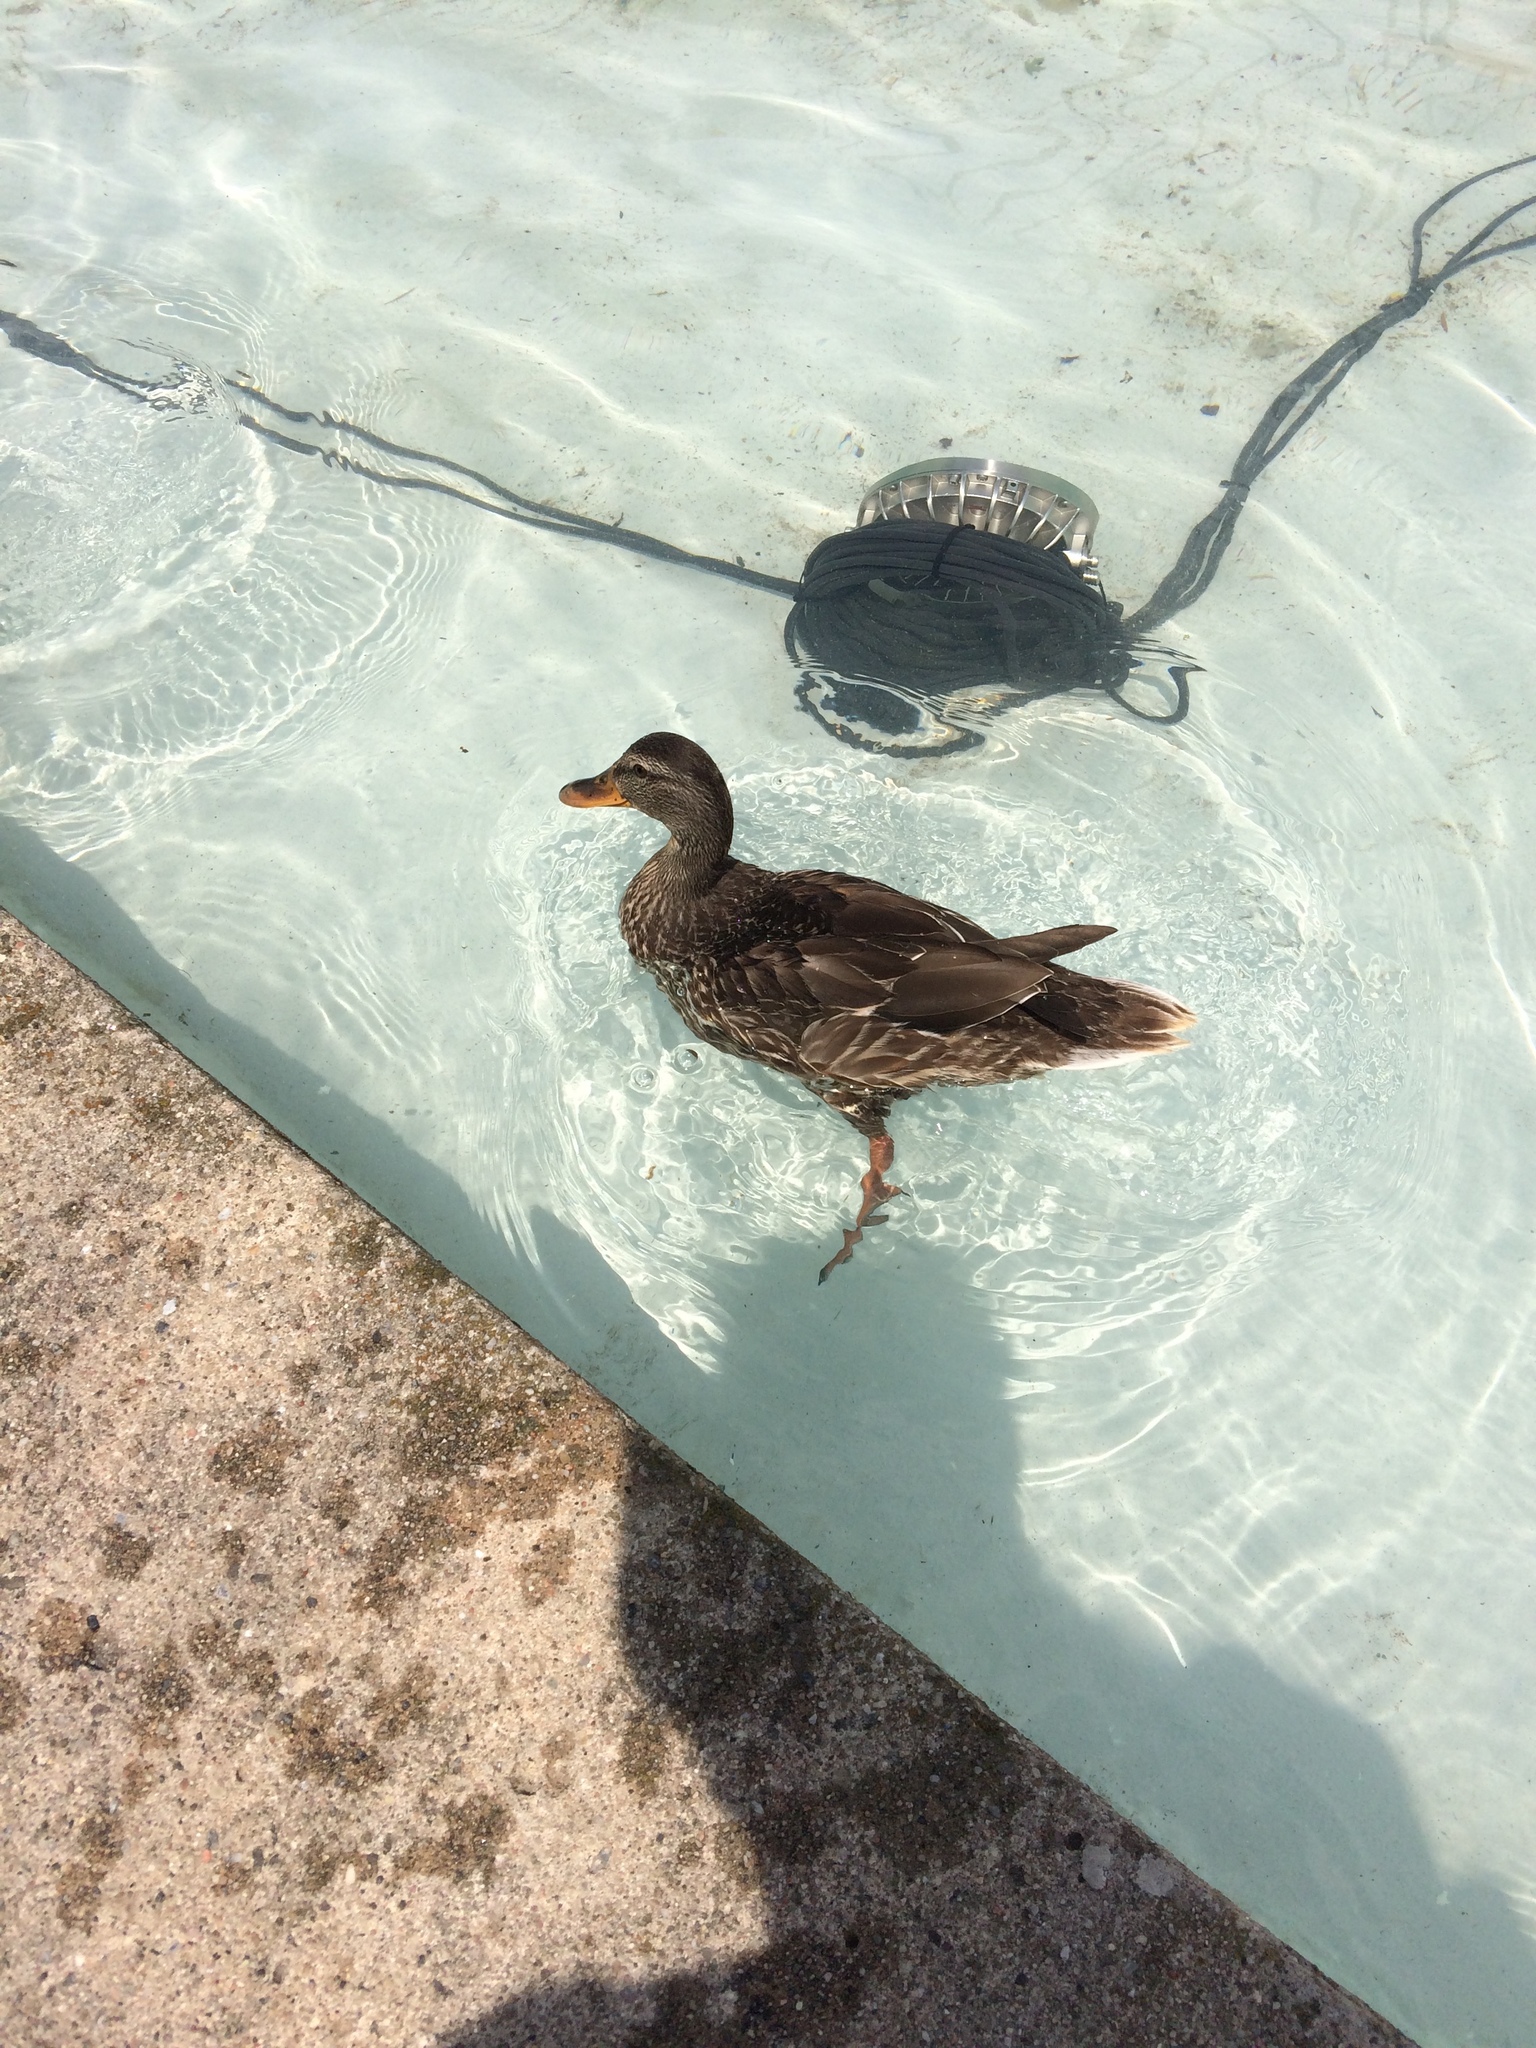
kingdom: Animalia
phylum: Chordata
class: Aves
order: Anseriformes
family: Anatidae
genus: Anas
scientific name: Anas platyrhynchos
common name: Mallard
